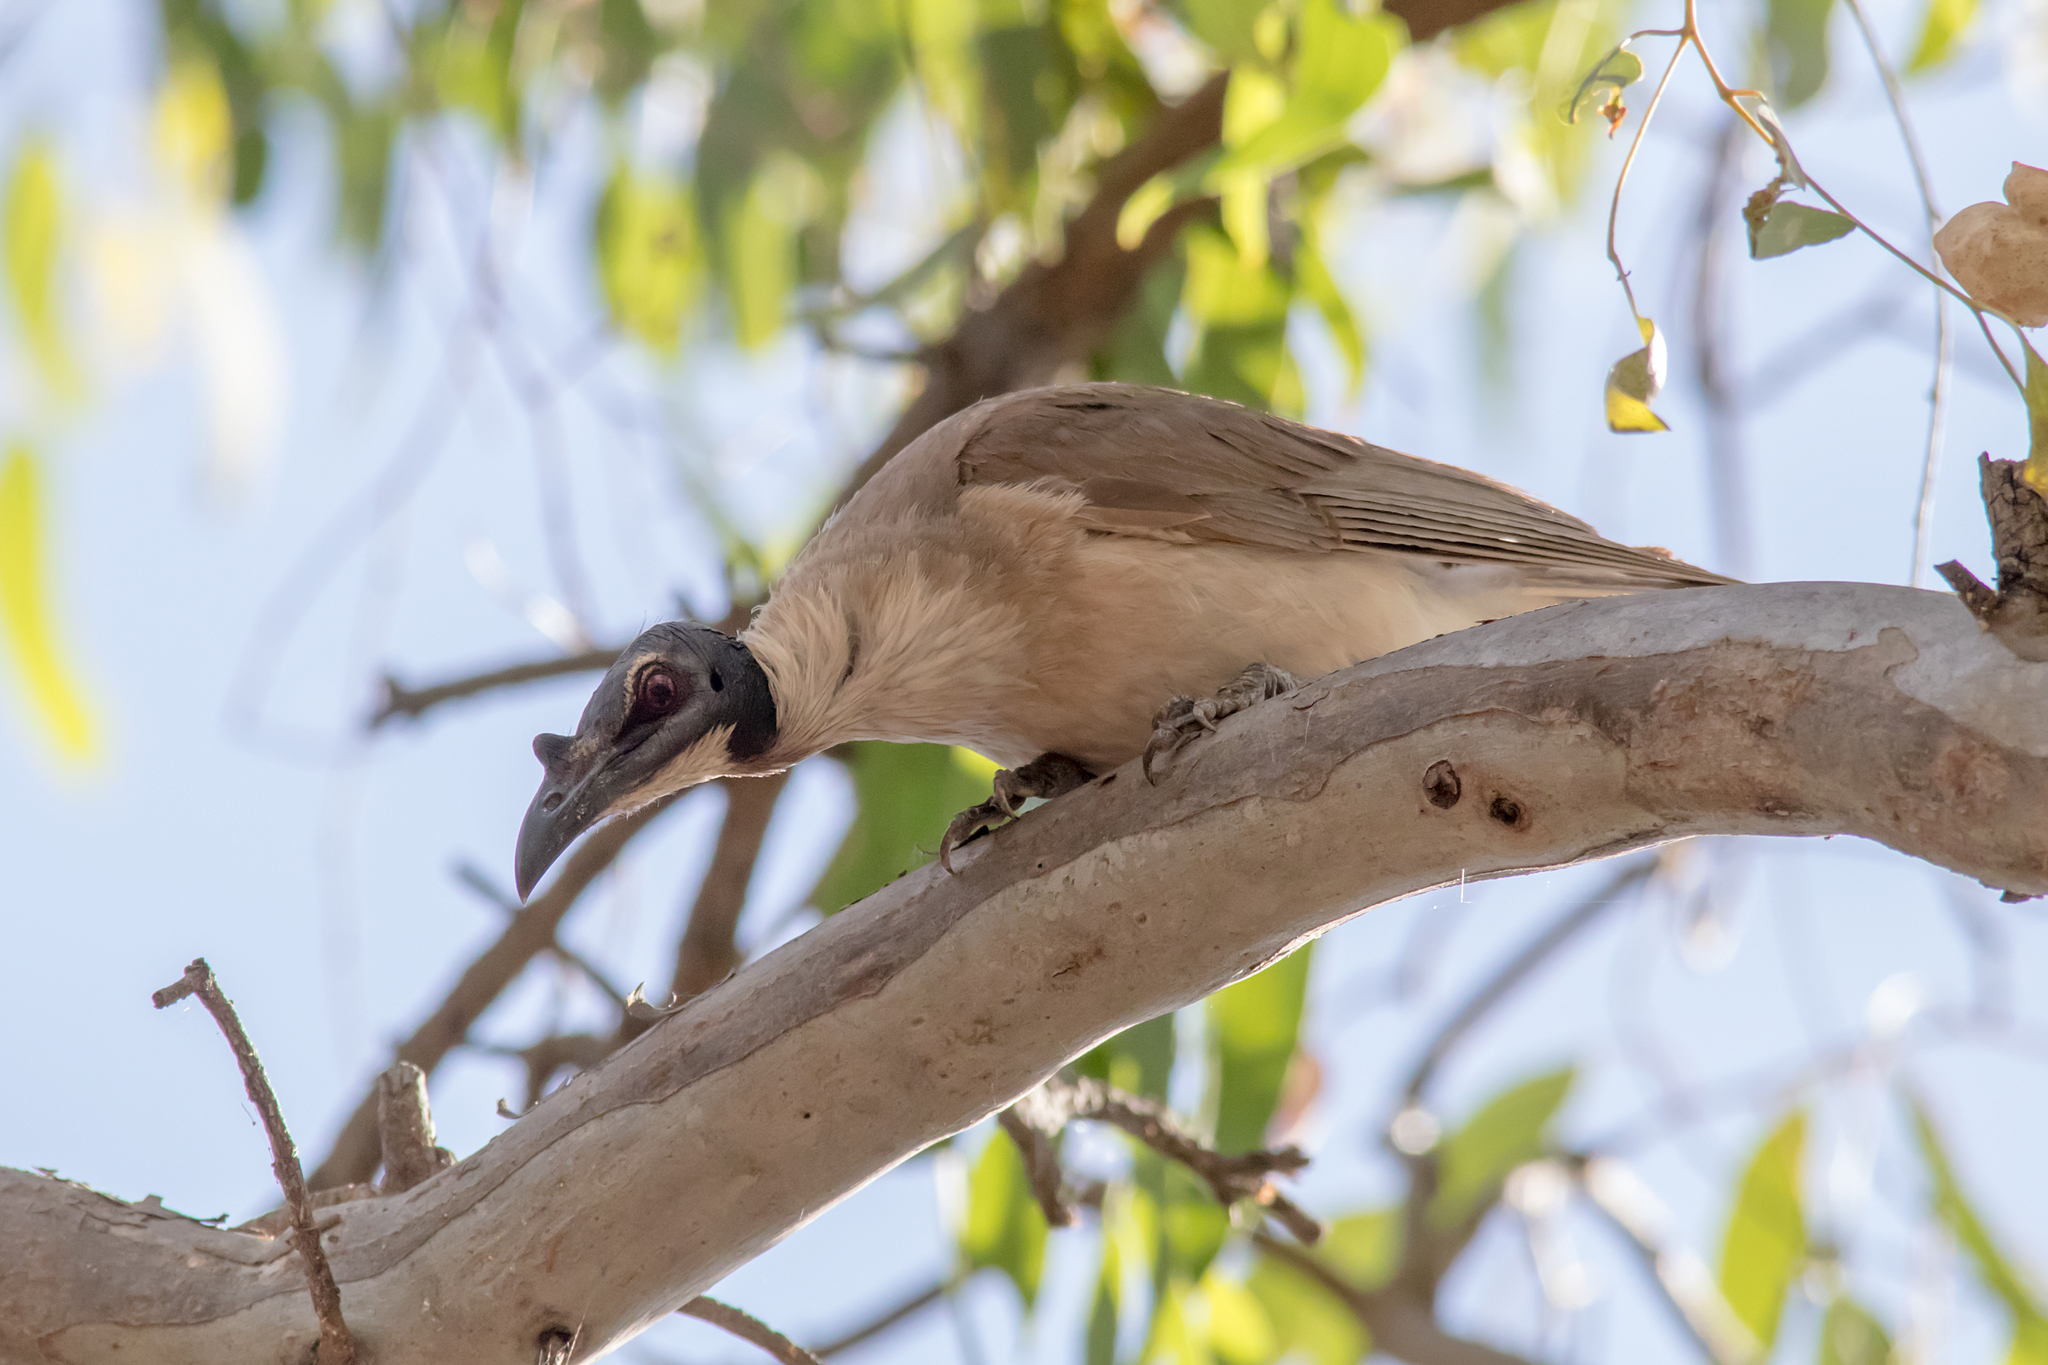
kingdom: Animalia
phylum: Chordata
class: Aves
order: Passeriformes
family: Meliphagidae
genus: Philemon
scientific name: Philemon corniculatus
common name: Noisy friarbird
